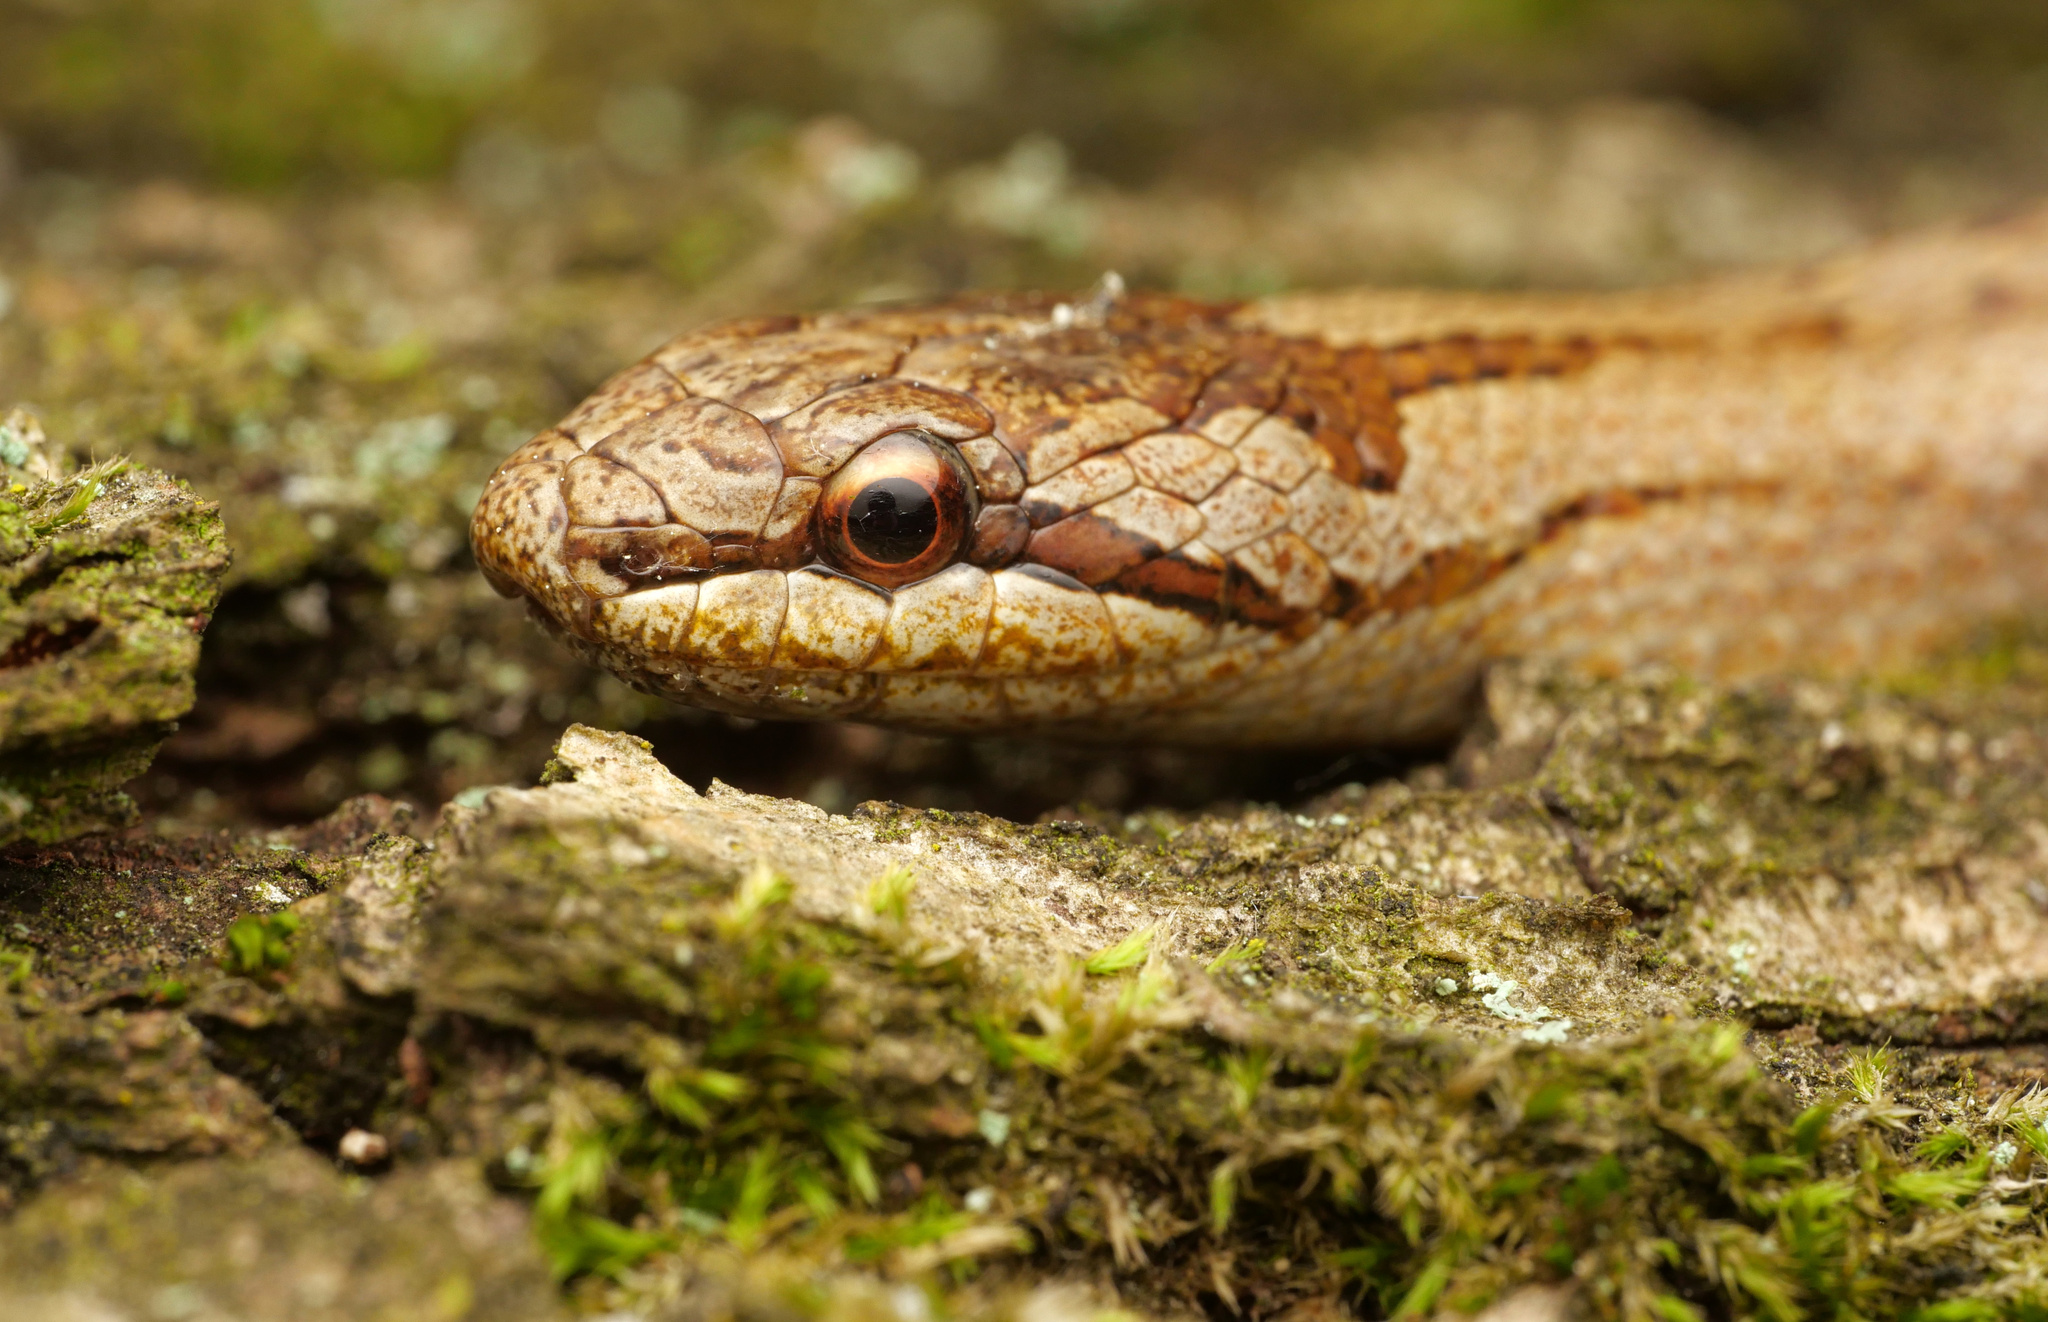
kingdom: Animalia
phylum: Chordata
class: Squamata
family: Colubridae
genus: Coronella
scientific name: Coronella austriaca
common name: Smooth snake
